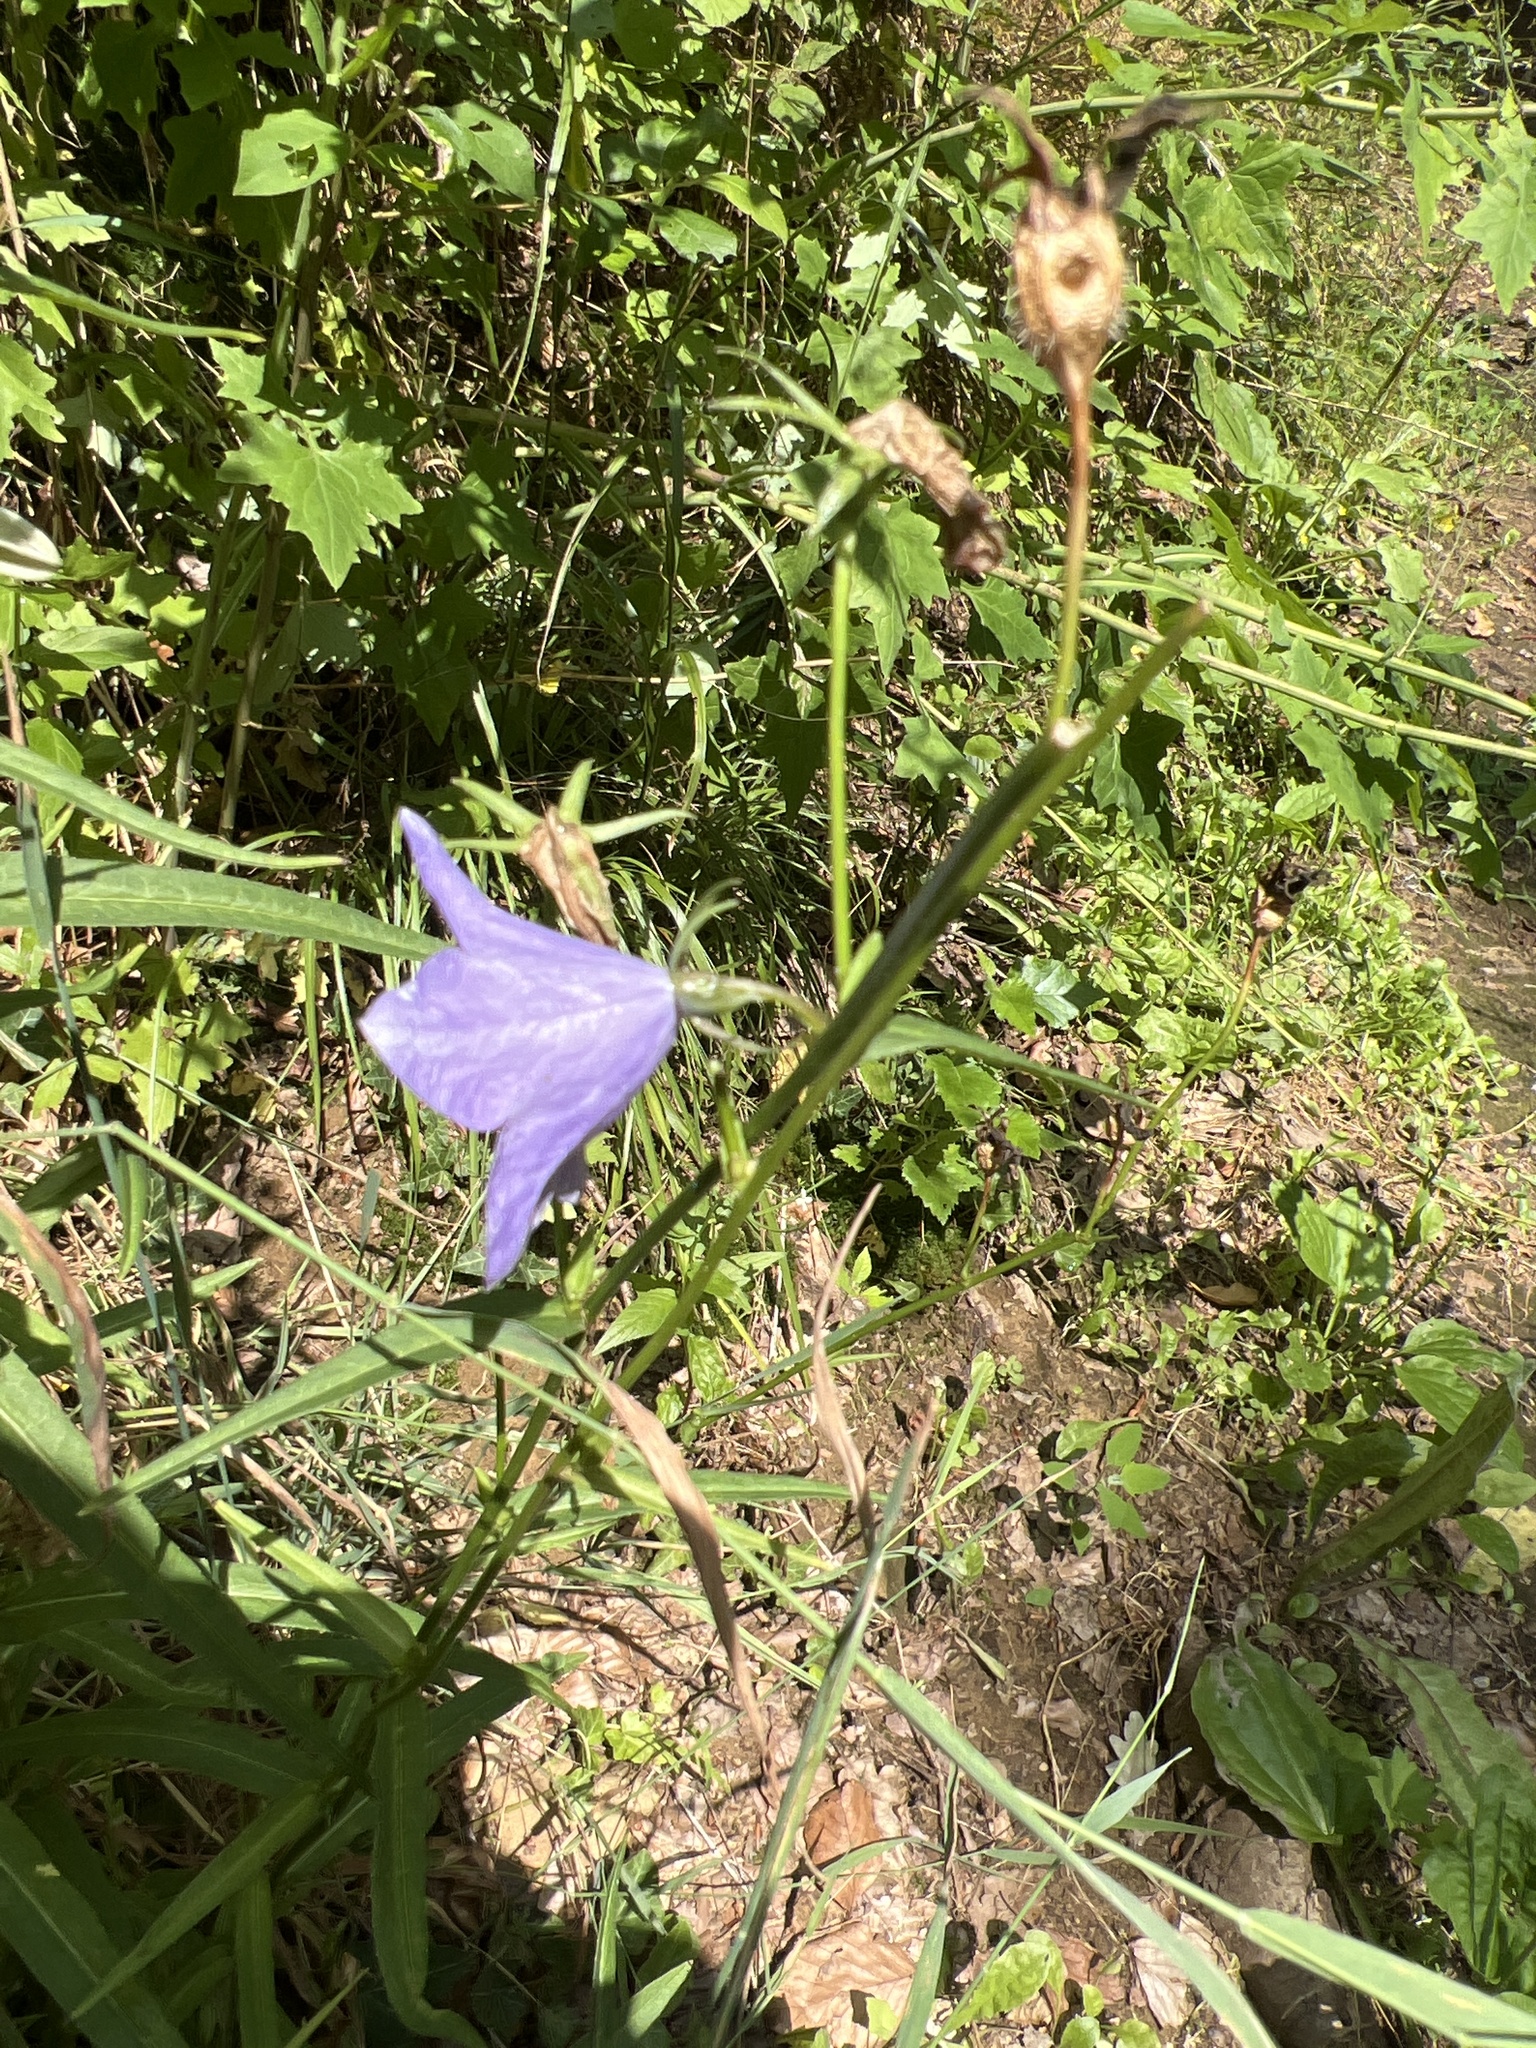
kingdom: Plantae
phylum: Tracheophyta
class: Magnoliopsida
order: Asterales
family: Campanulaceae
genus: Campanula
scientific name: Campanula persicifolia
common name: Peach-leaved bellflower
